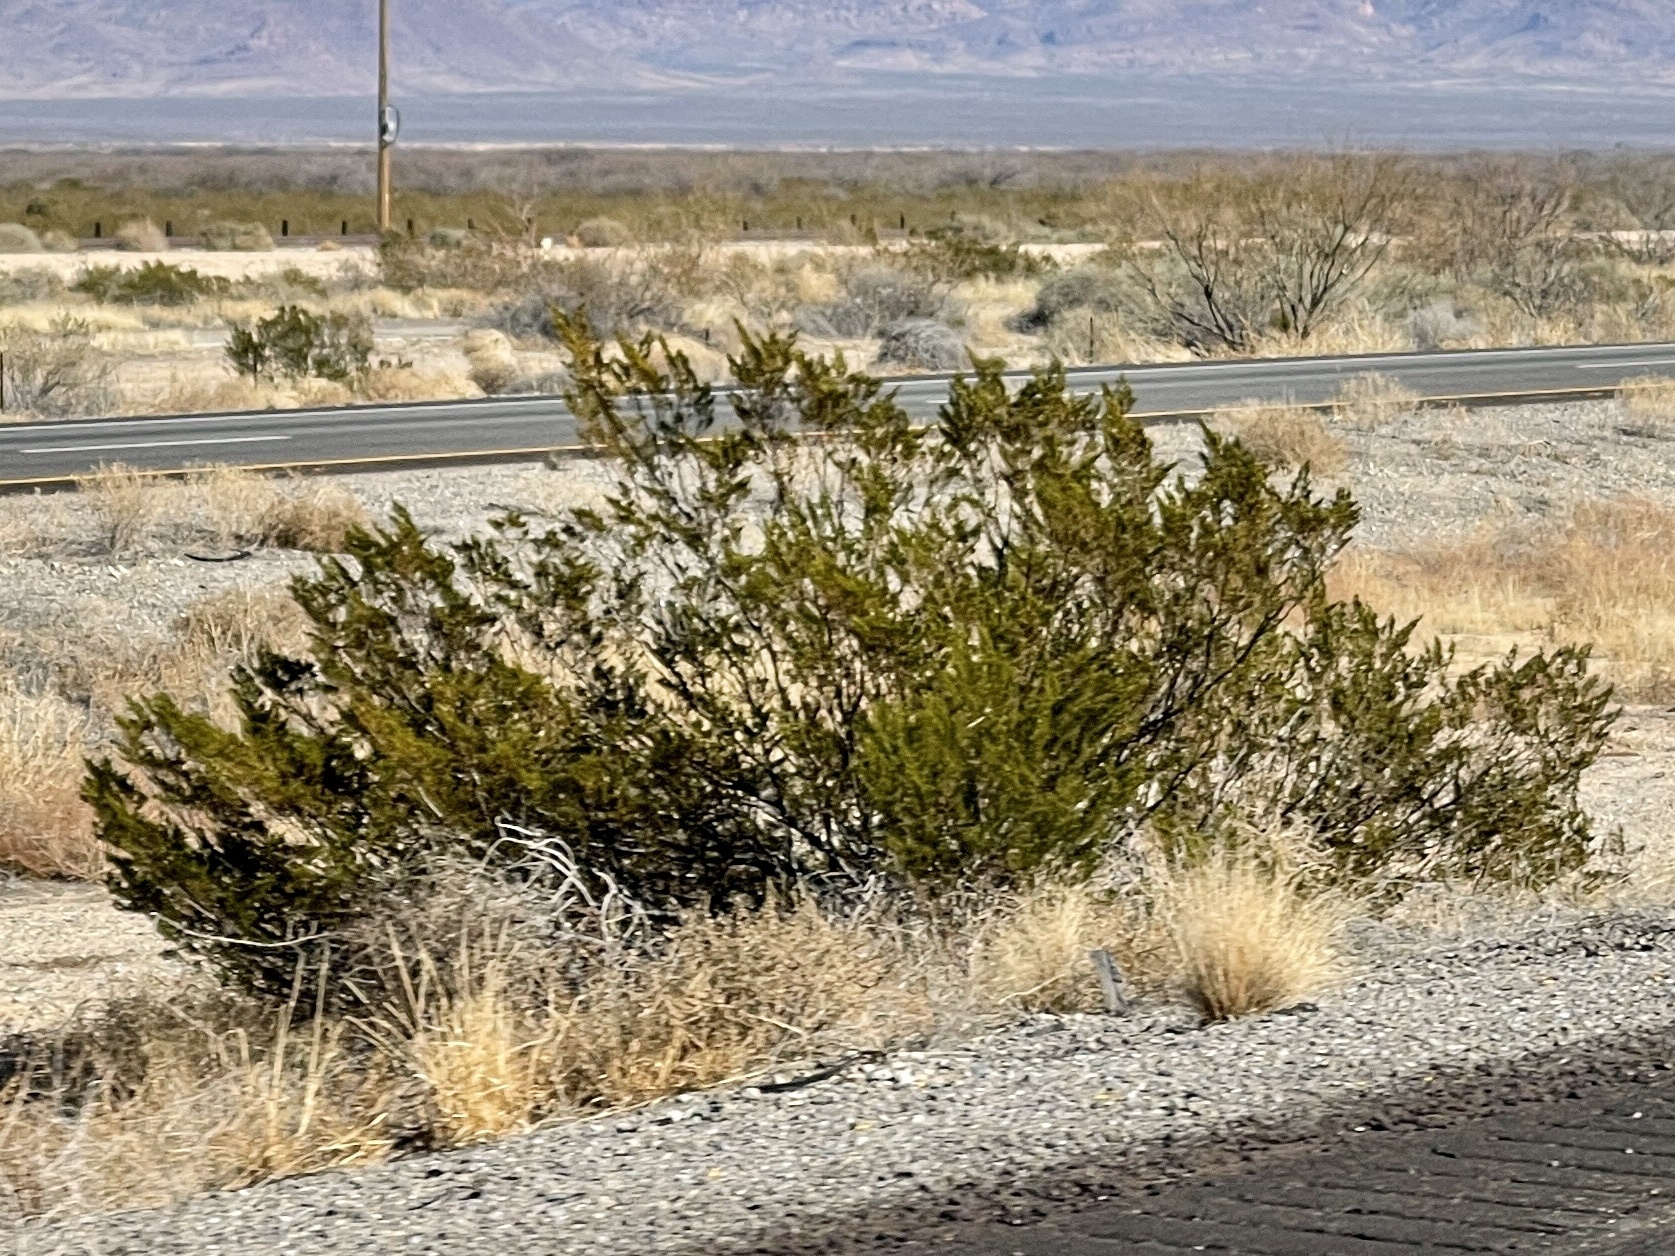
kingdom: Plantae
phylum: Tracheophyta
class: Magnoliopsida
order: Zygophyllales
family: Zygophyllaceae
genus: Larrea
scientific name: Larrea tridentata
